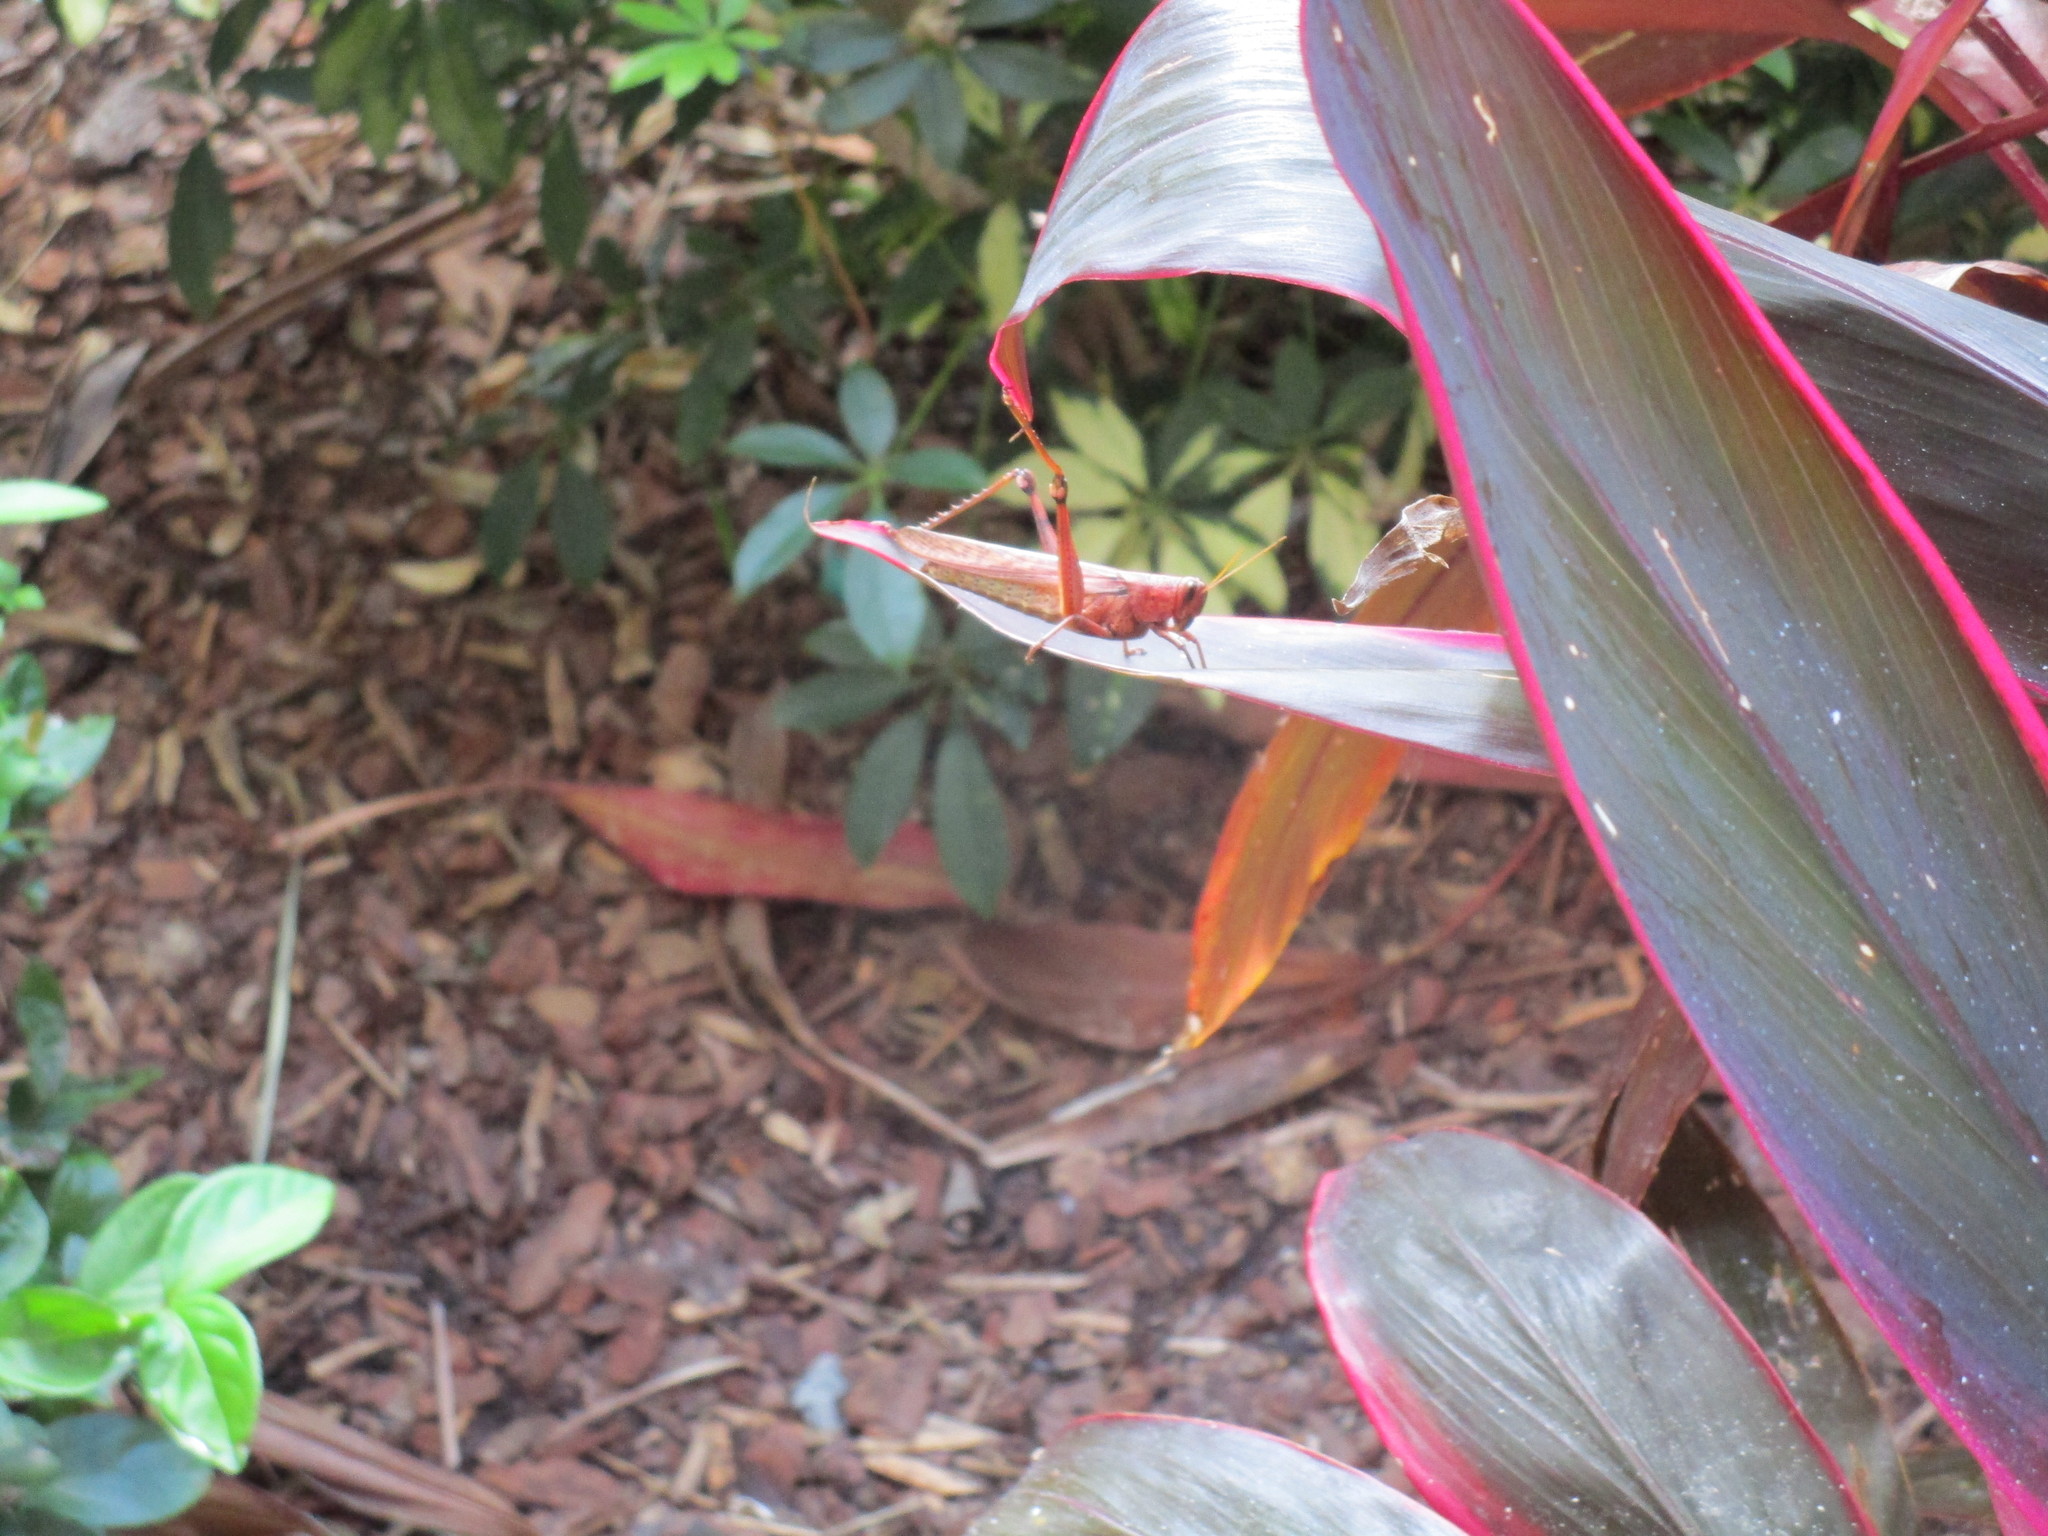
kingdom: Animalia
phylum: Arthropoda
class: Insecta
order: Orthoptera
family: Acrididae
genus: Schistocerca
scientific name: Schistocerca alutacea
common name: Leather-colored bird locust
